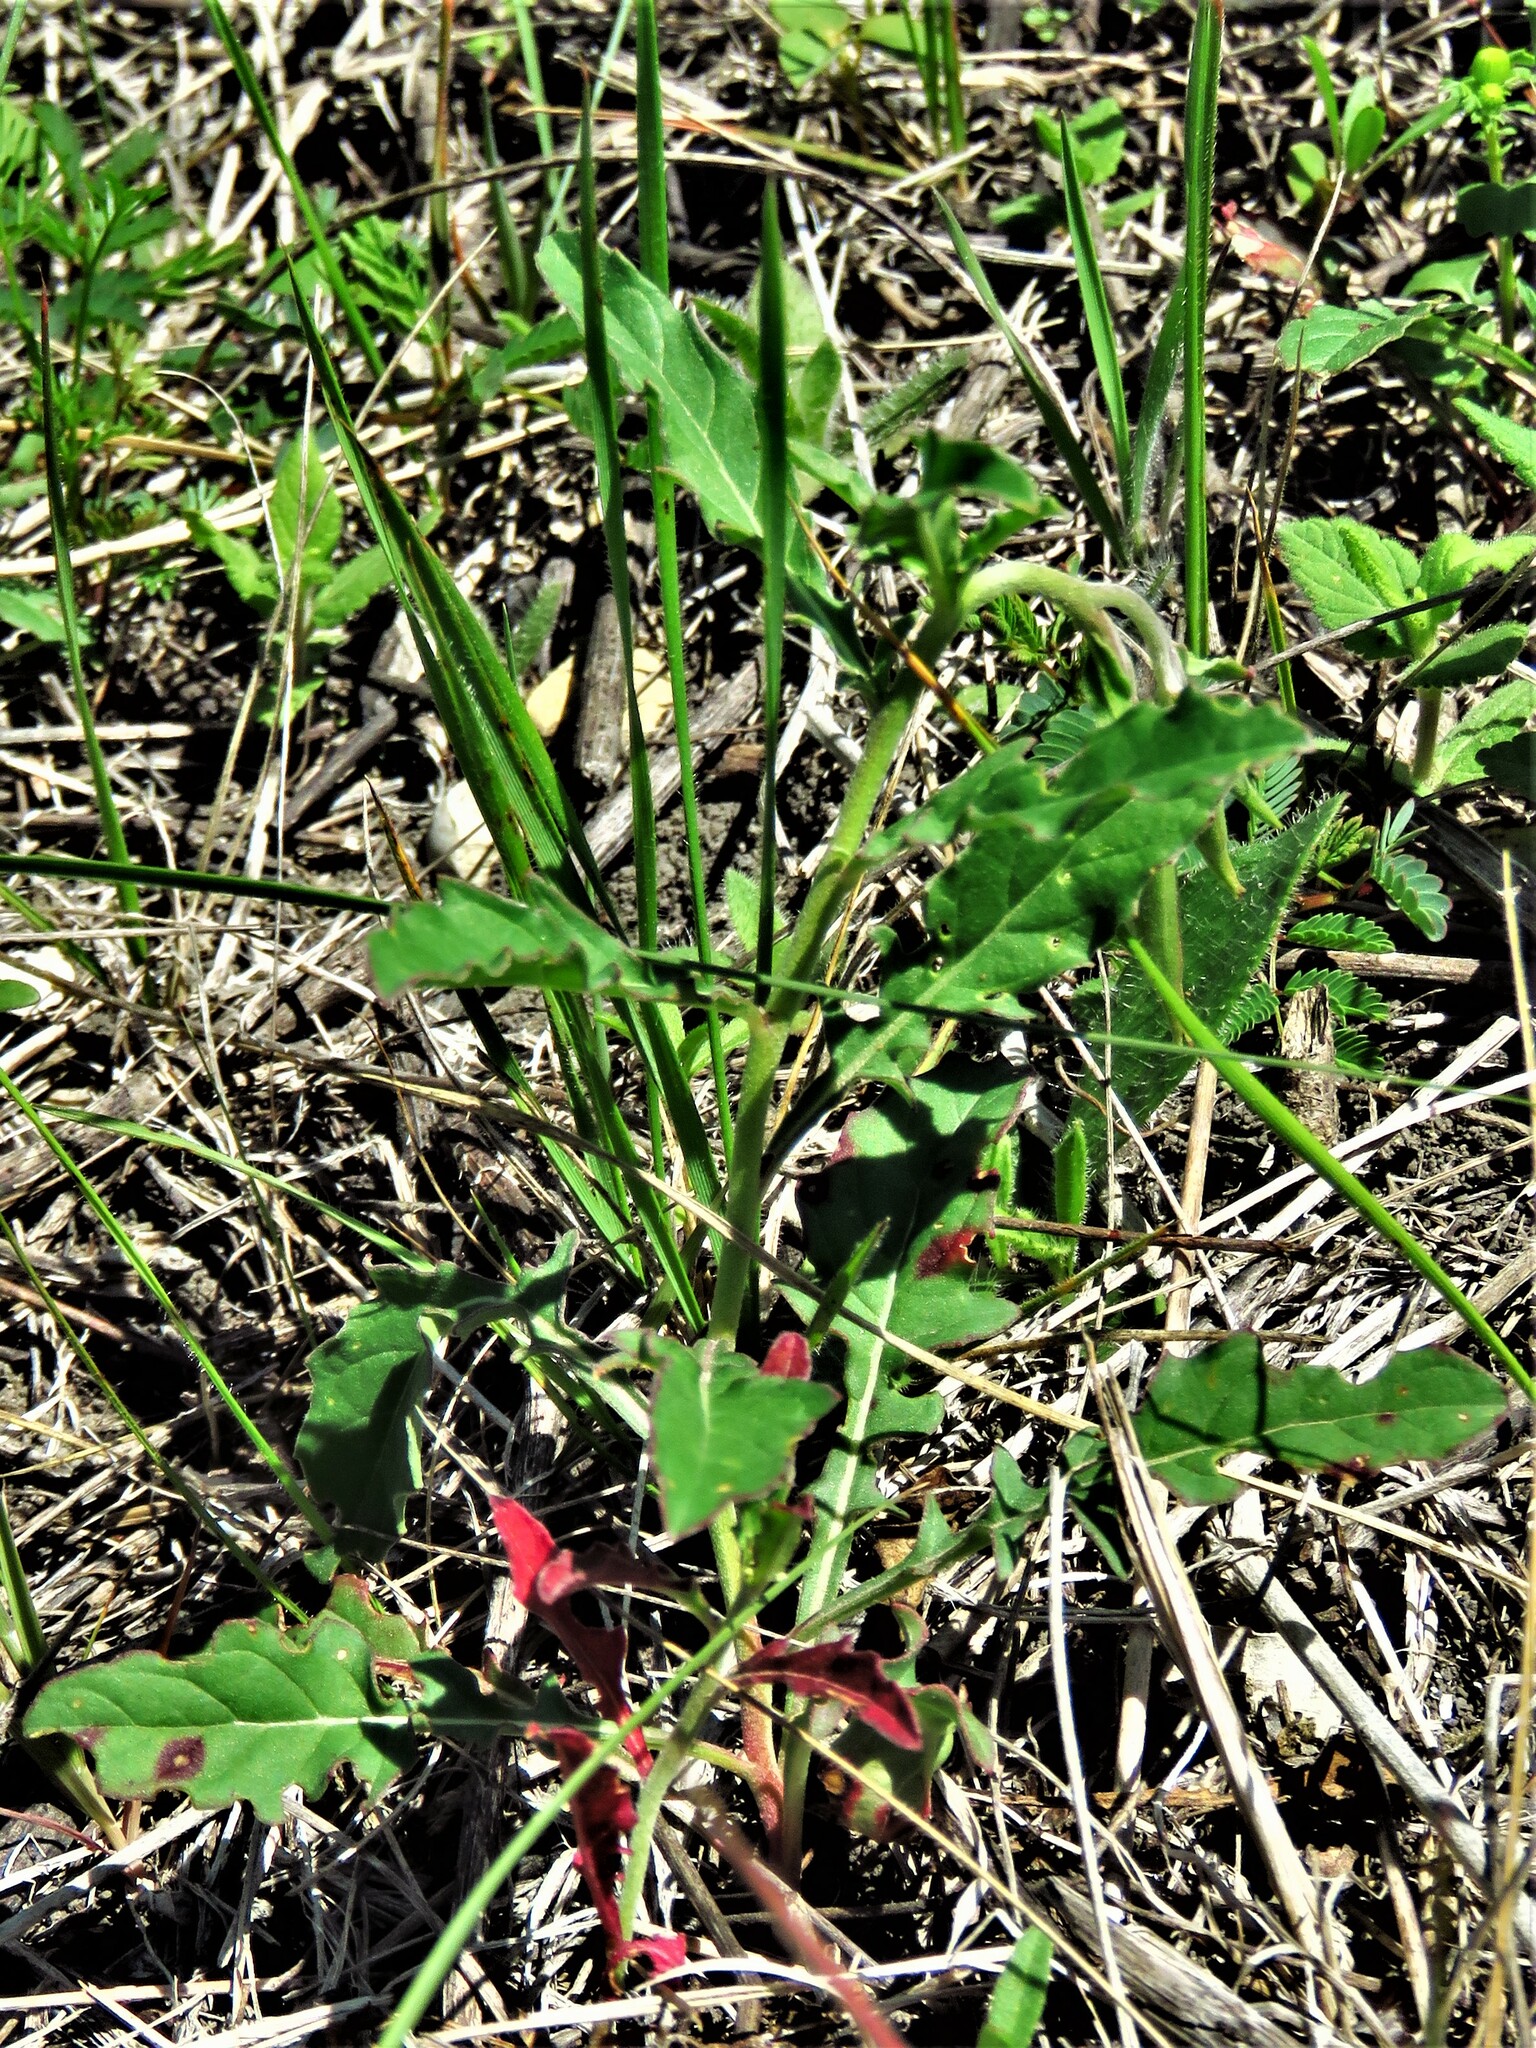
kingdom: Plantae
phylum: Tracheophyta
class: Magnoliopsida
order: Myrtales
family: Onagraceae
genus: Oenothera
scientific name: Oenothera speciosa
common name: White evening-primrose
